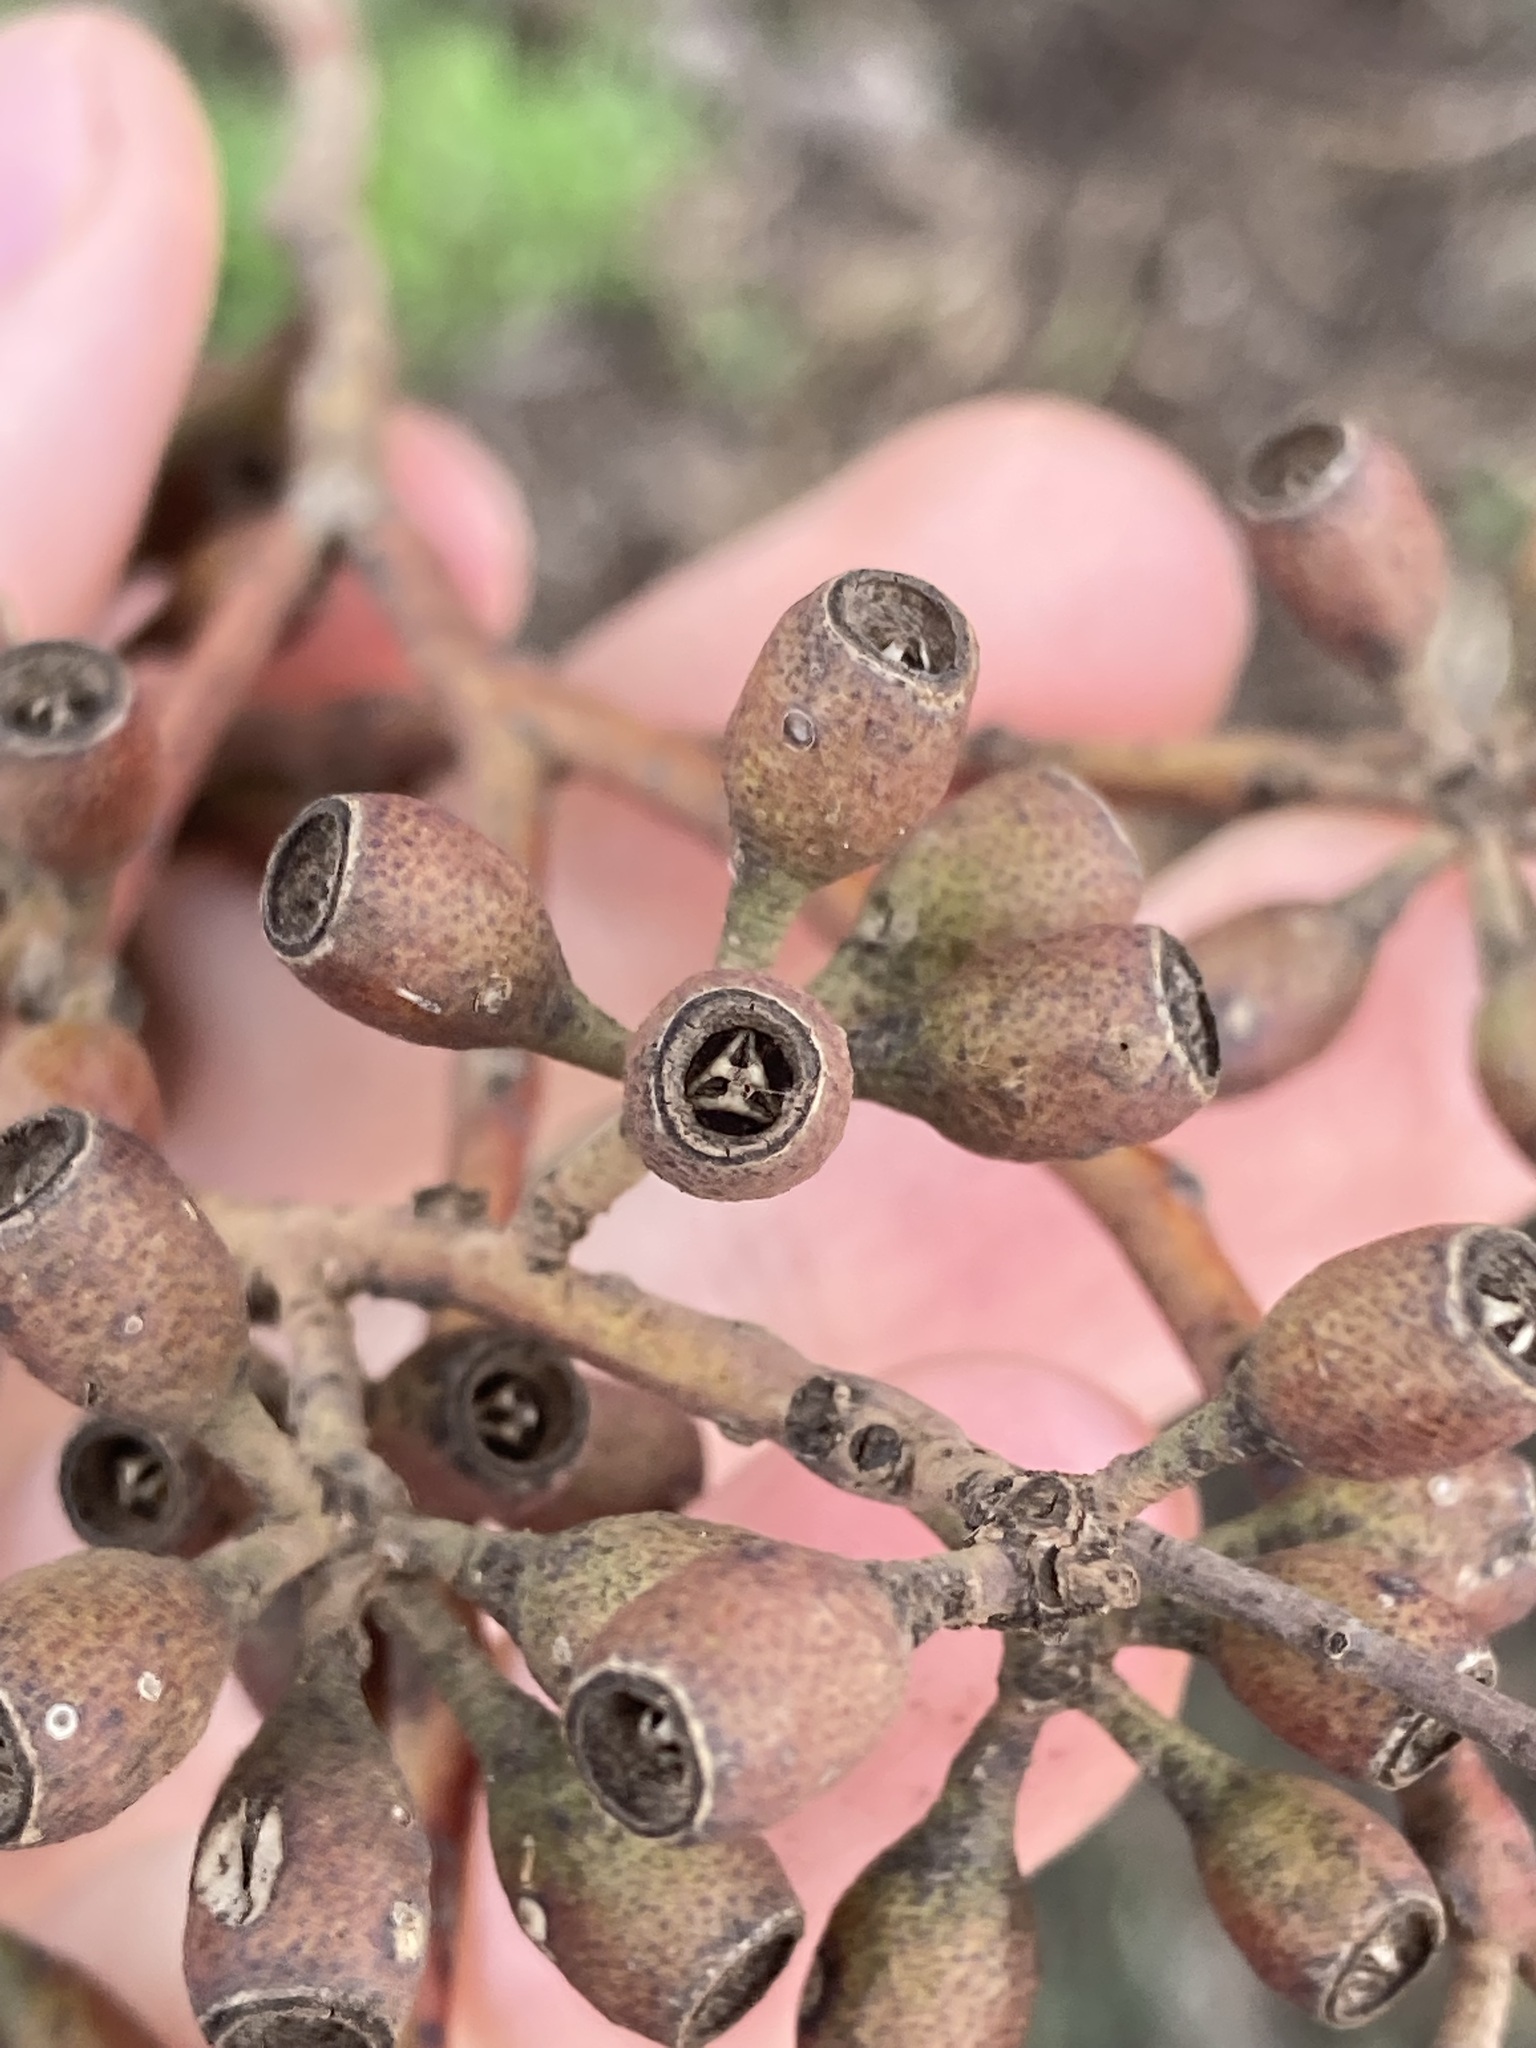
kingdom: Plantae
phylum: Tracheophyta
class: Magnoliopsida
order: Myrtales
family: Myrtaceae
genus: Eucalyptus
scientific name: Eucalyptus virella
